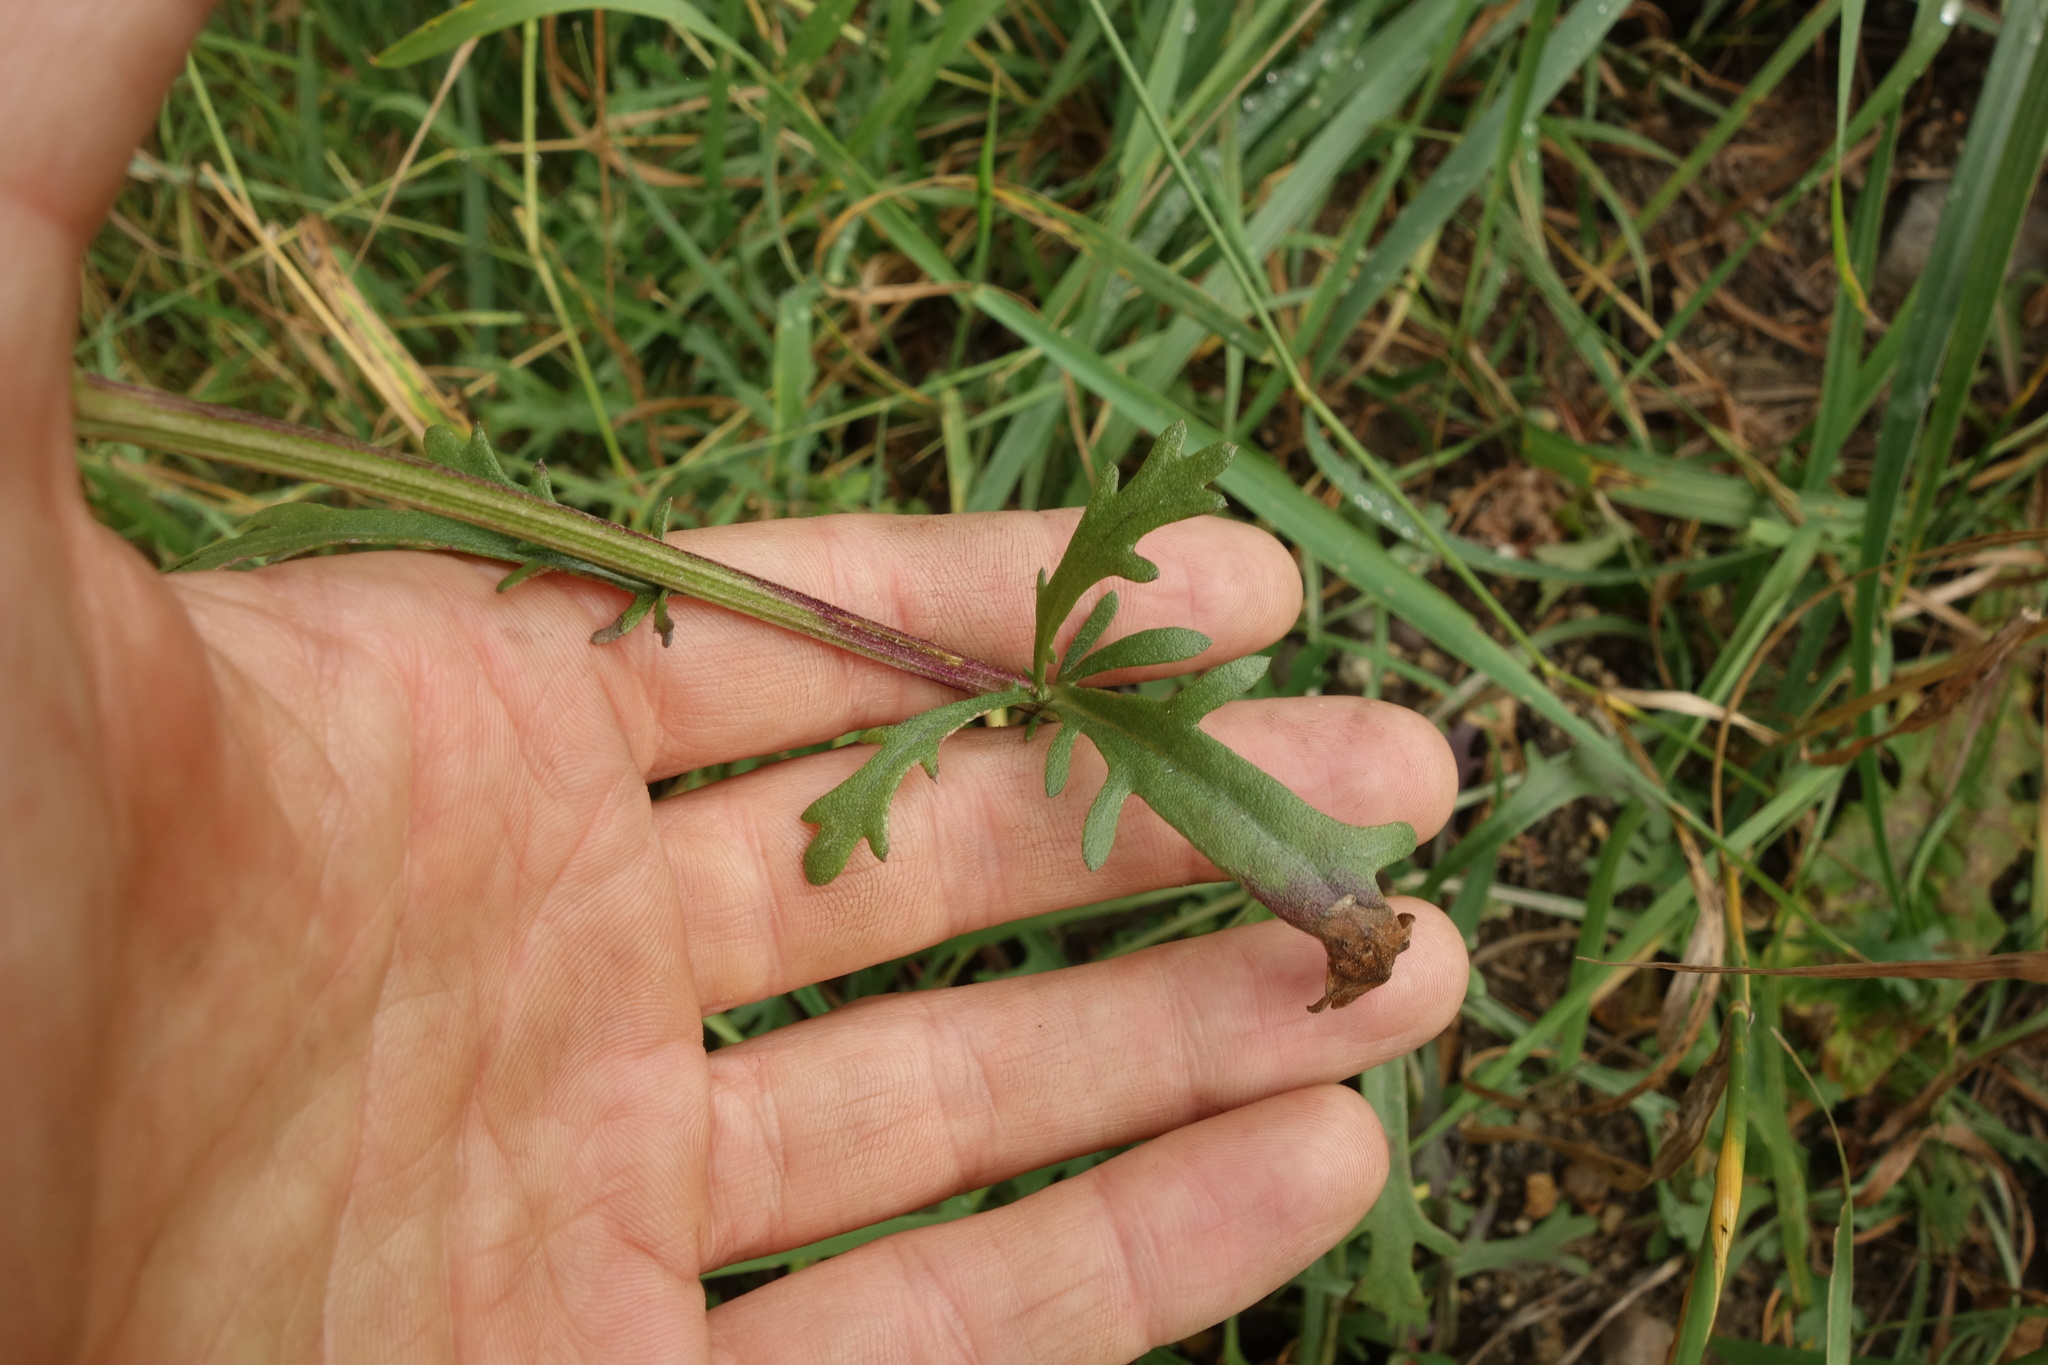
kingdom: Plantae
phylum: Tracheophyta
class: Magnoliopsida
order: Asterales
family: Asteraceae
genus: Chrysanthemum
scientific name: Chrysanthemum zawadzkii
